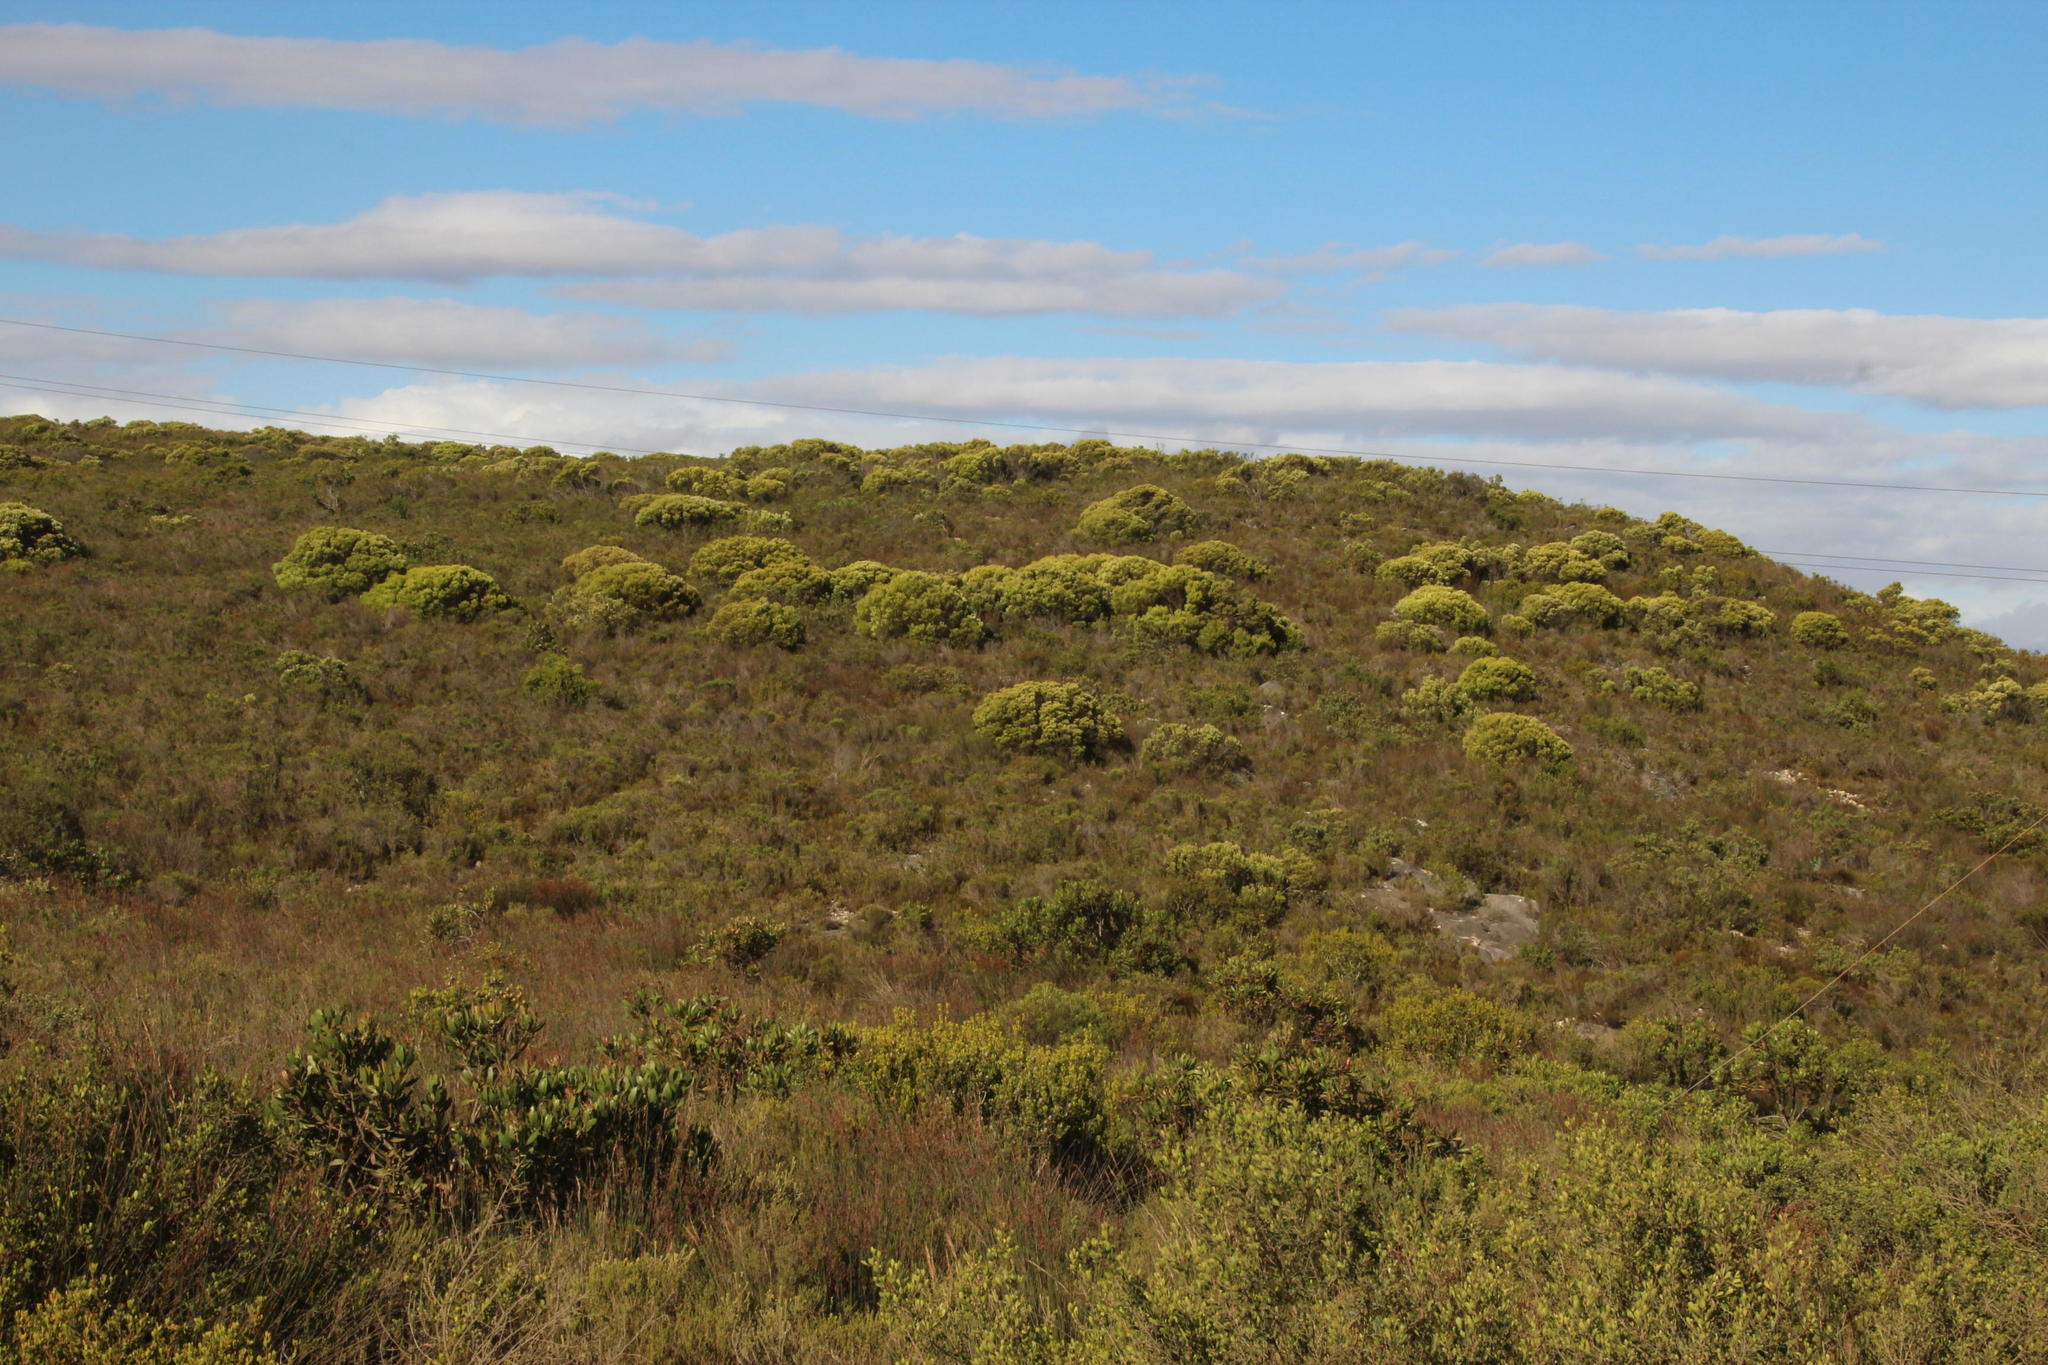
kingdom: Plantae
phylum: Tracheophyta
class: Magnoliopsida
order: Proteales
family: Proteaceae
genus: Leucadendron
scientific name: Leucadendron meridianum
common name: Limestone conebush
